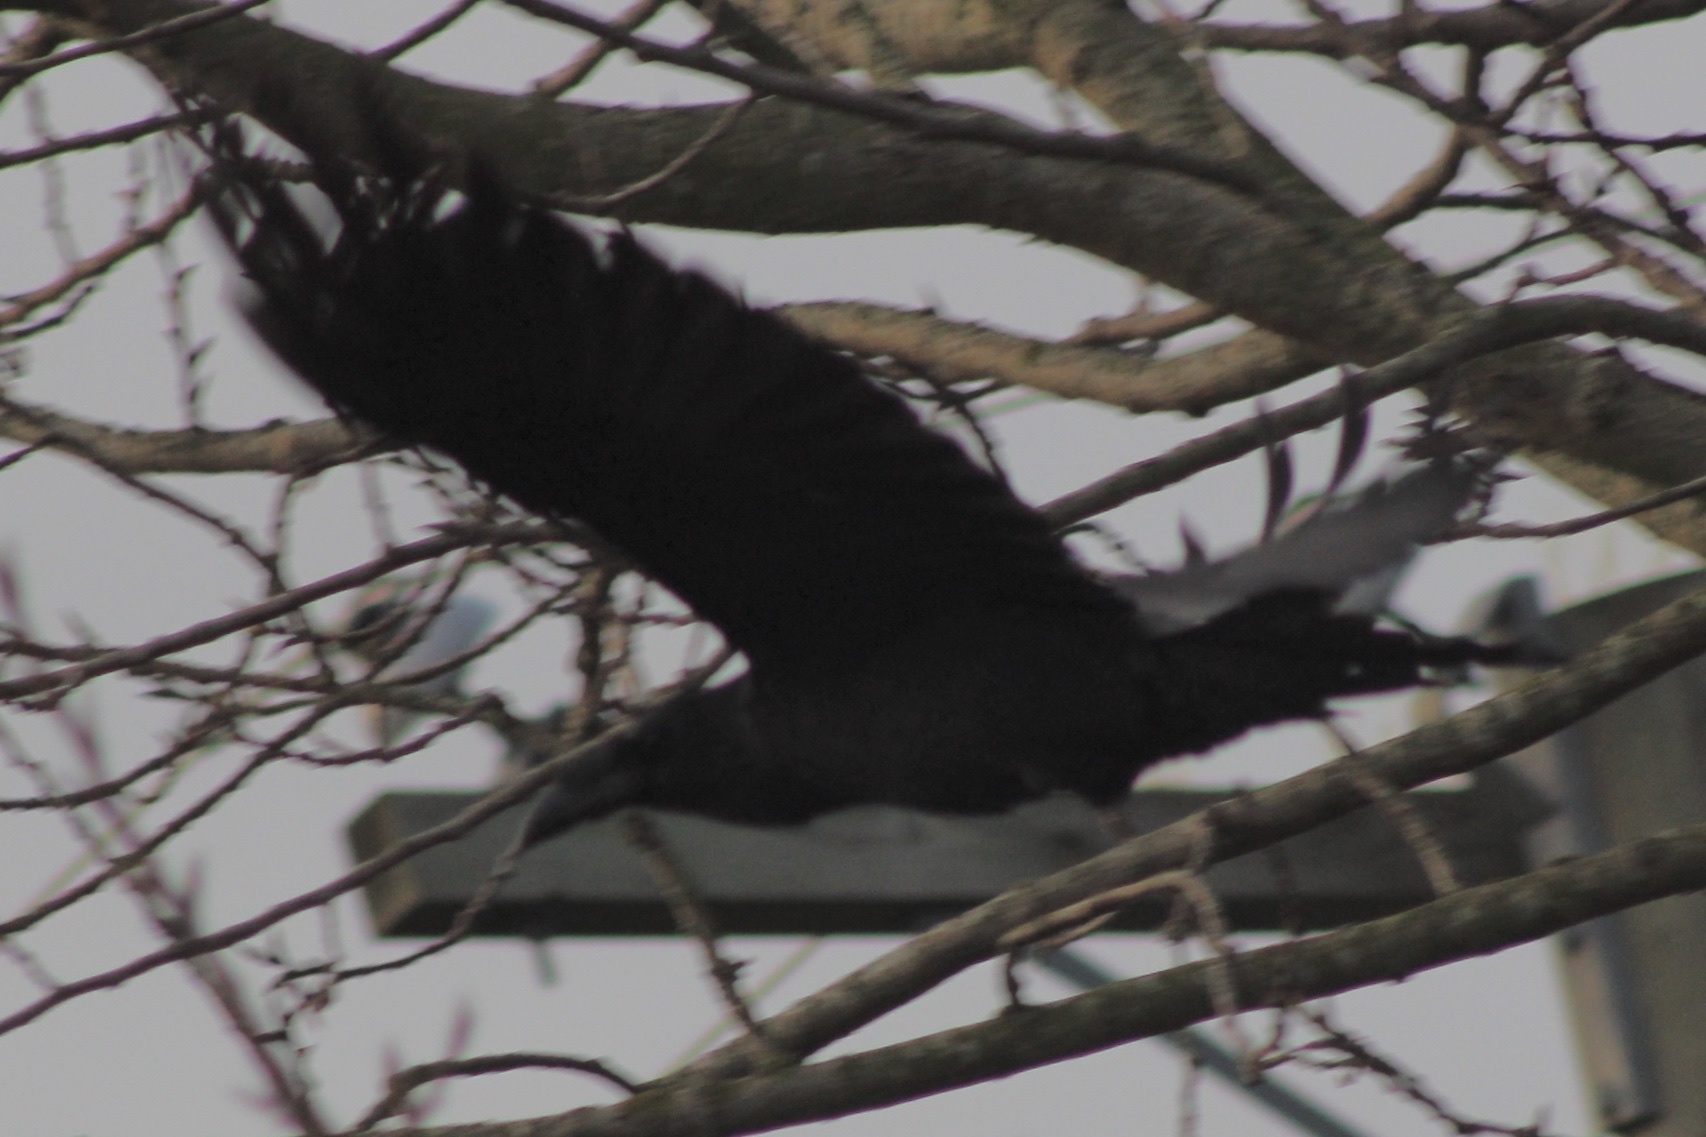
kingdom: Animalia
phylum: Chordata
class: Aves
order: Passeriformes
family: Corvidae
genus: Corvus
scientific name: Corvus corax
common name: Common raven
